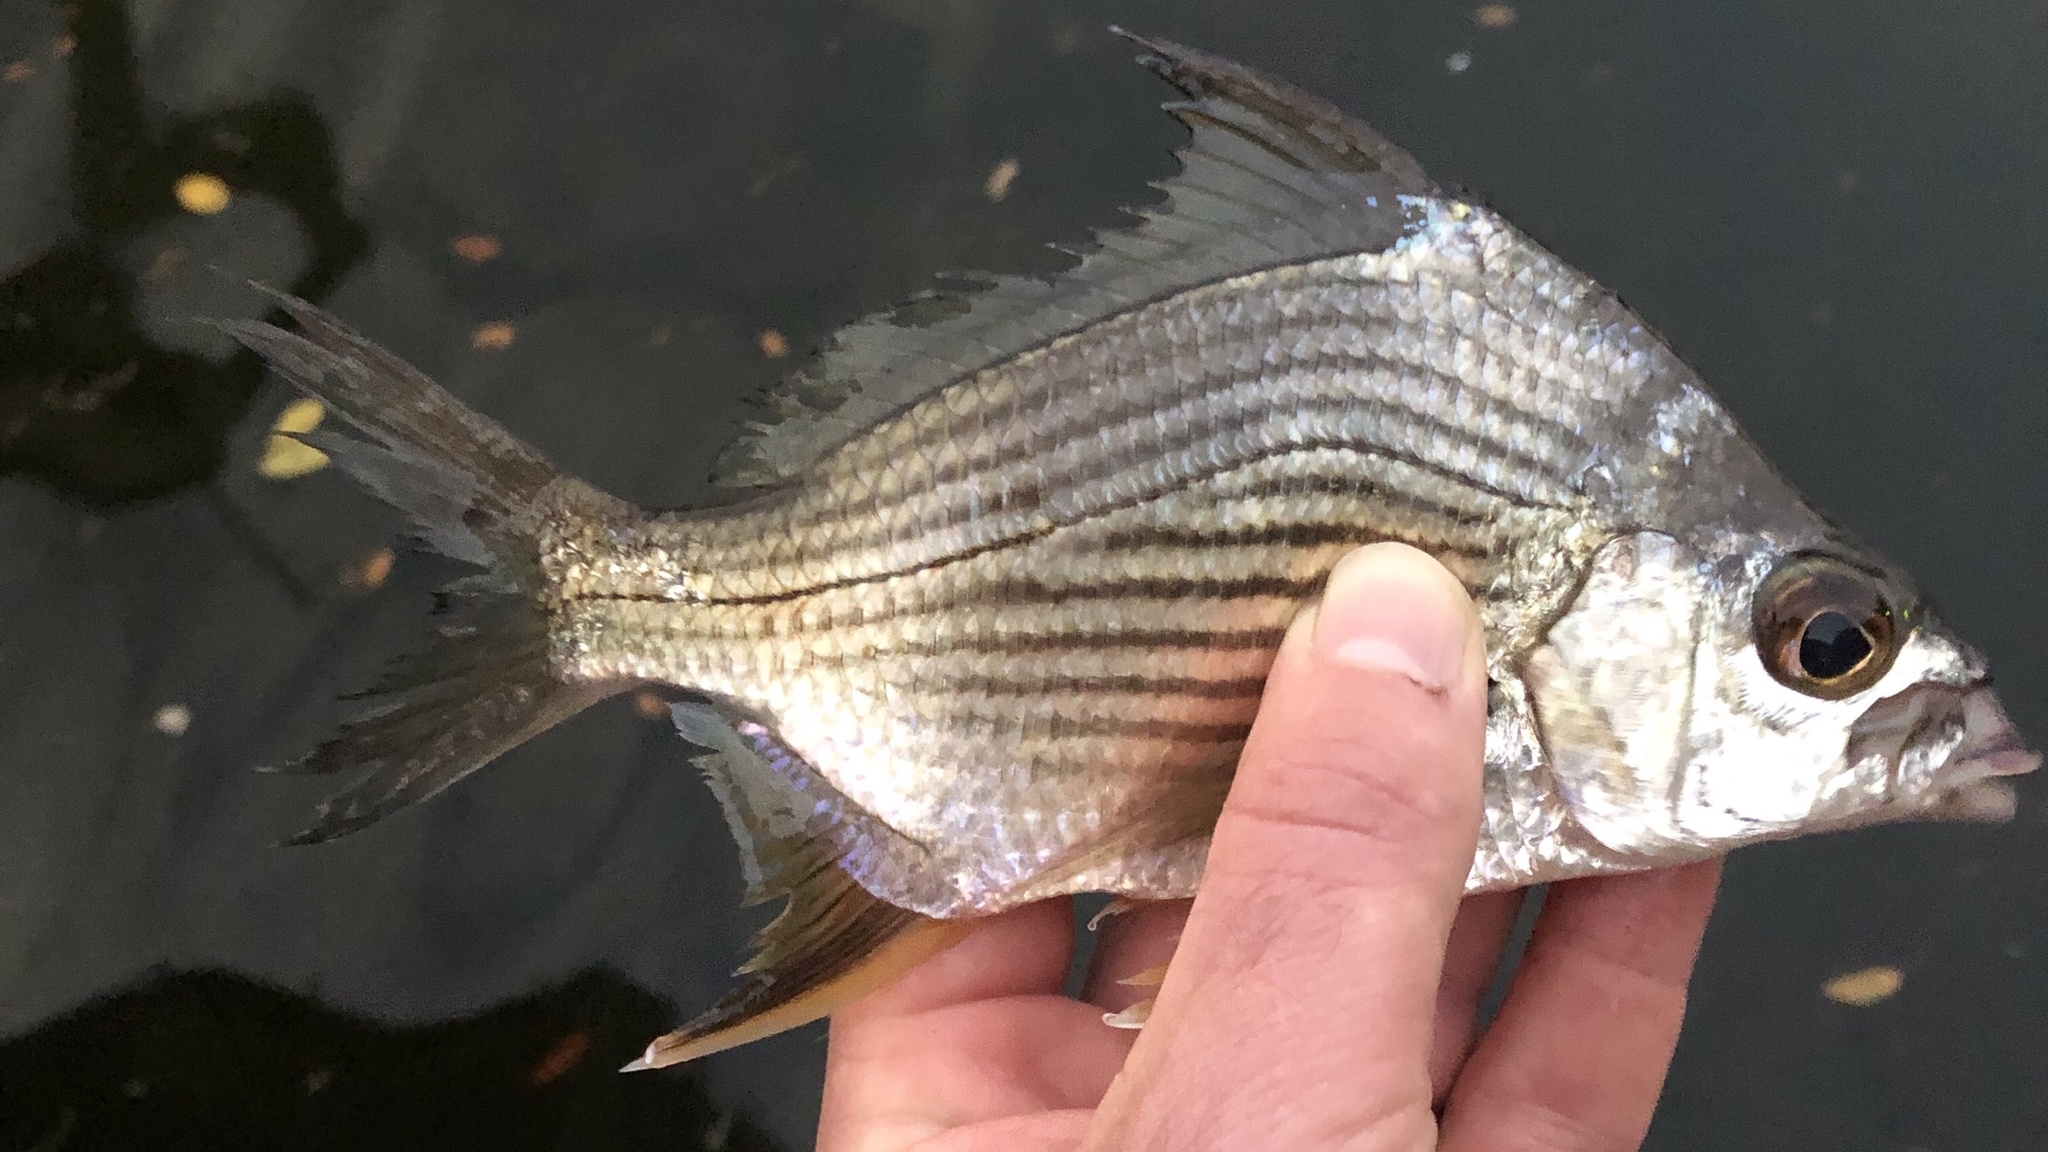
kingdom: Animalia
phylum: Chordata
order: Perciformes
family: Gerreidae
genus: Eugerres
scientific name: Eugerres plumieri
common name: Striped mojarra
